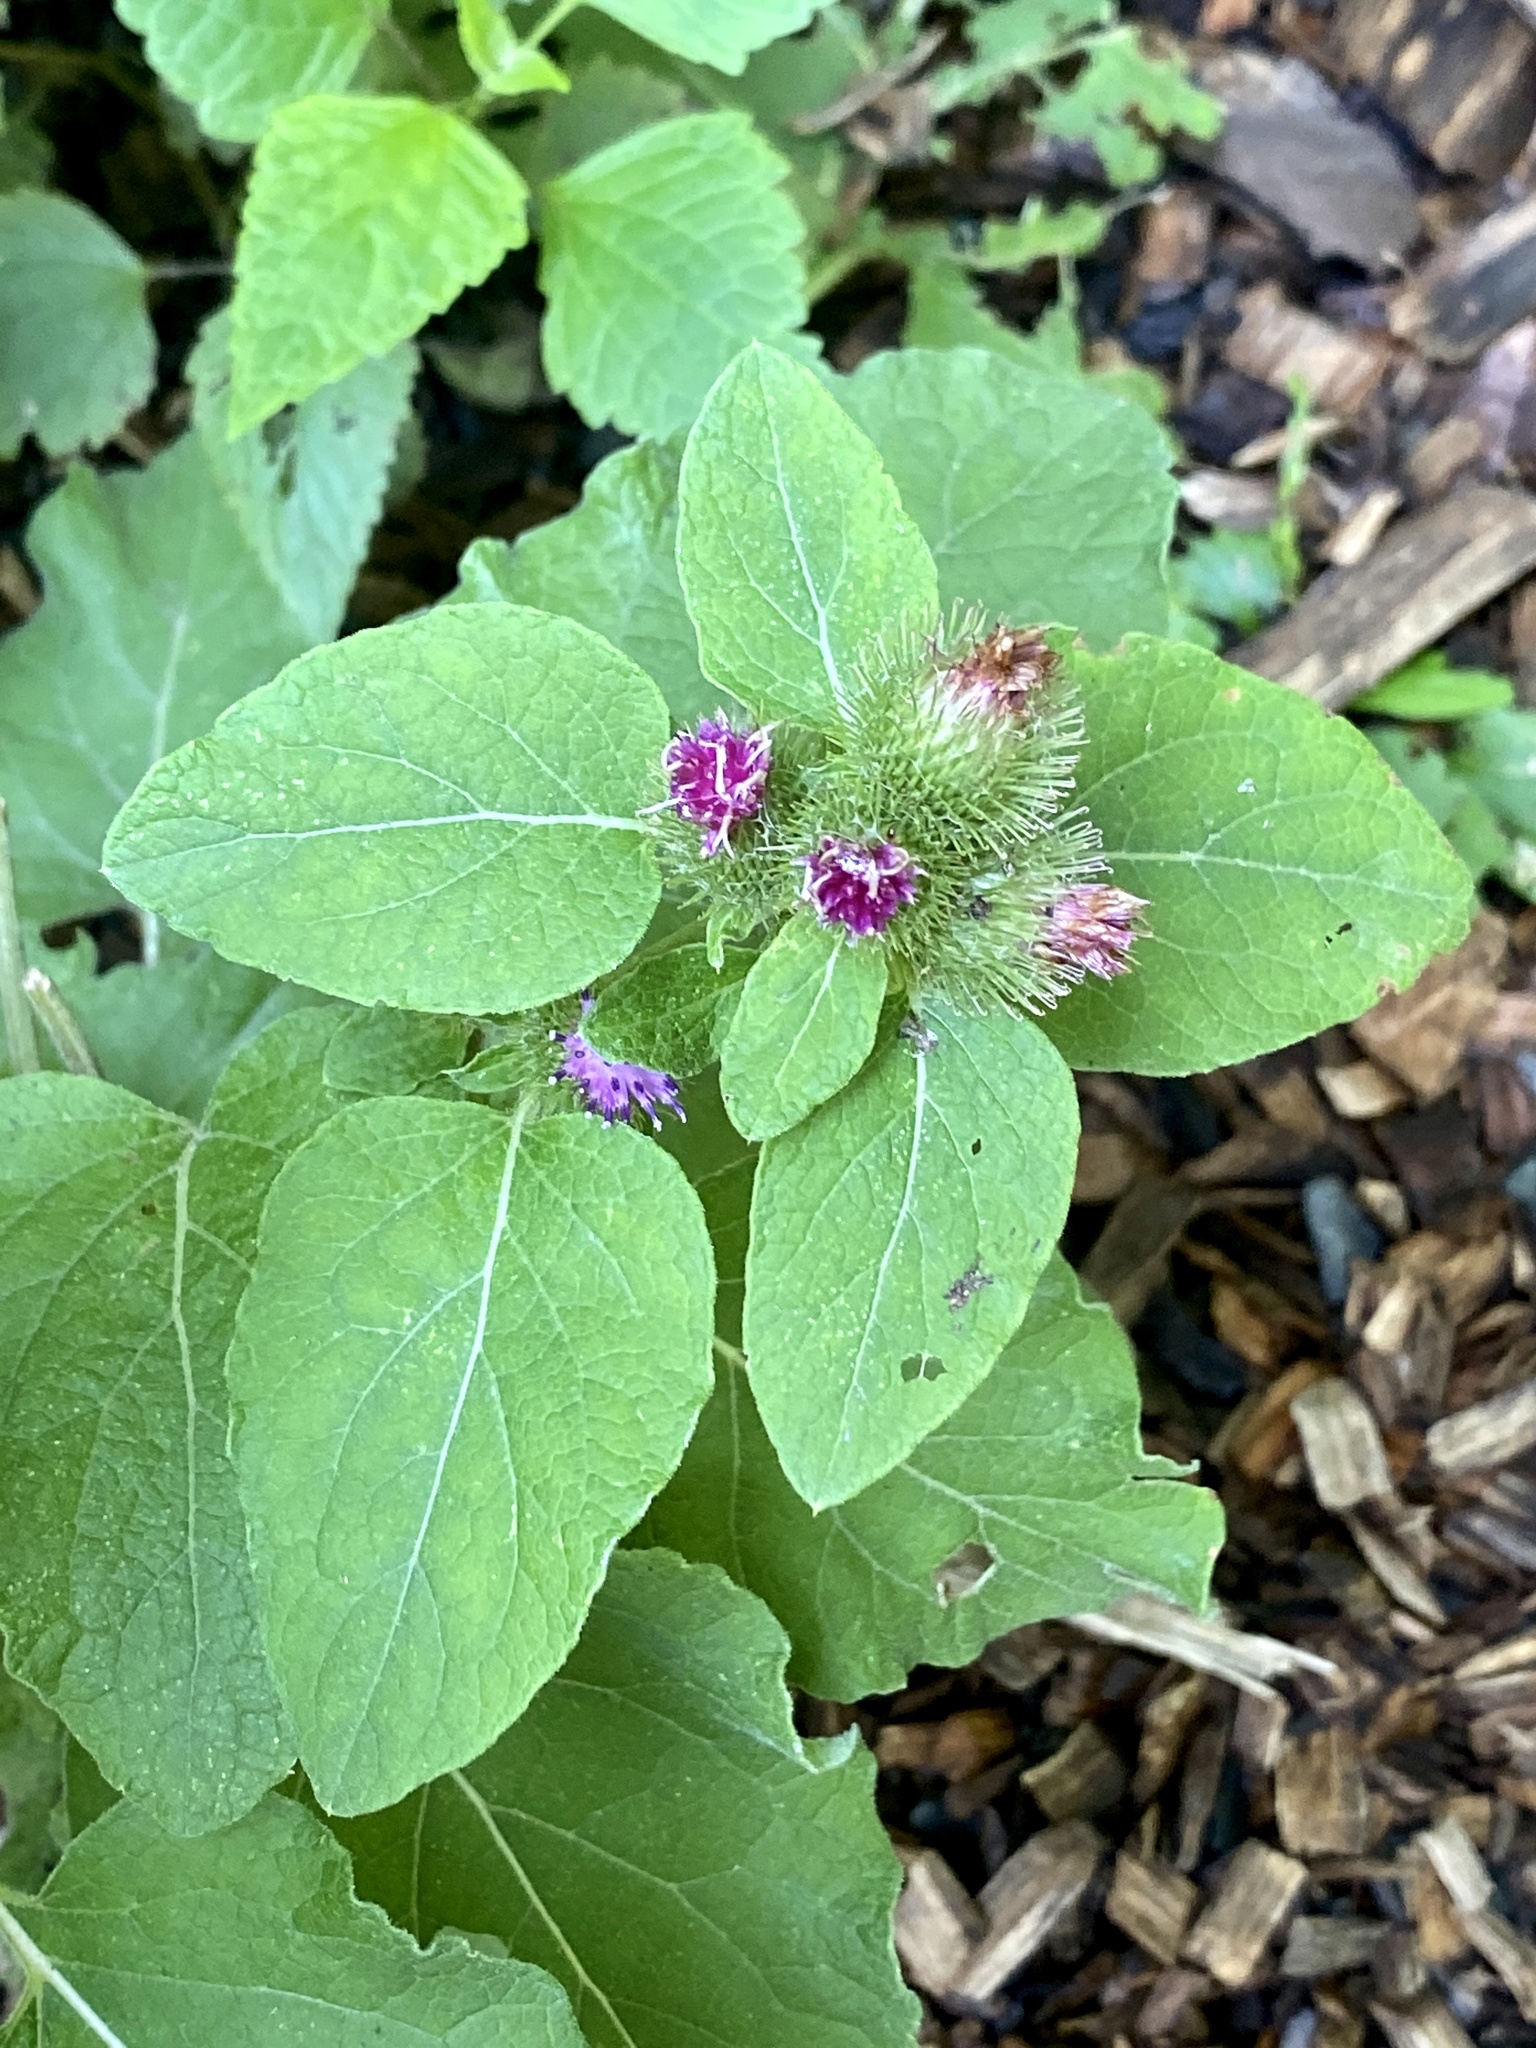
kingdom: Plantae
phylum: Tracheophyta
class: Magnoliopsida
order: Asterales
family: Asteraceae
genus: Arctium
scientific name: Arctium minus
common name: Lesser burdock
